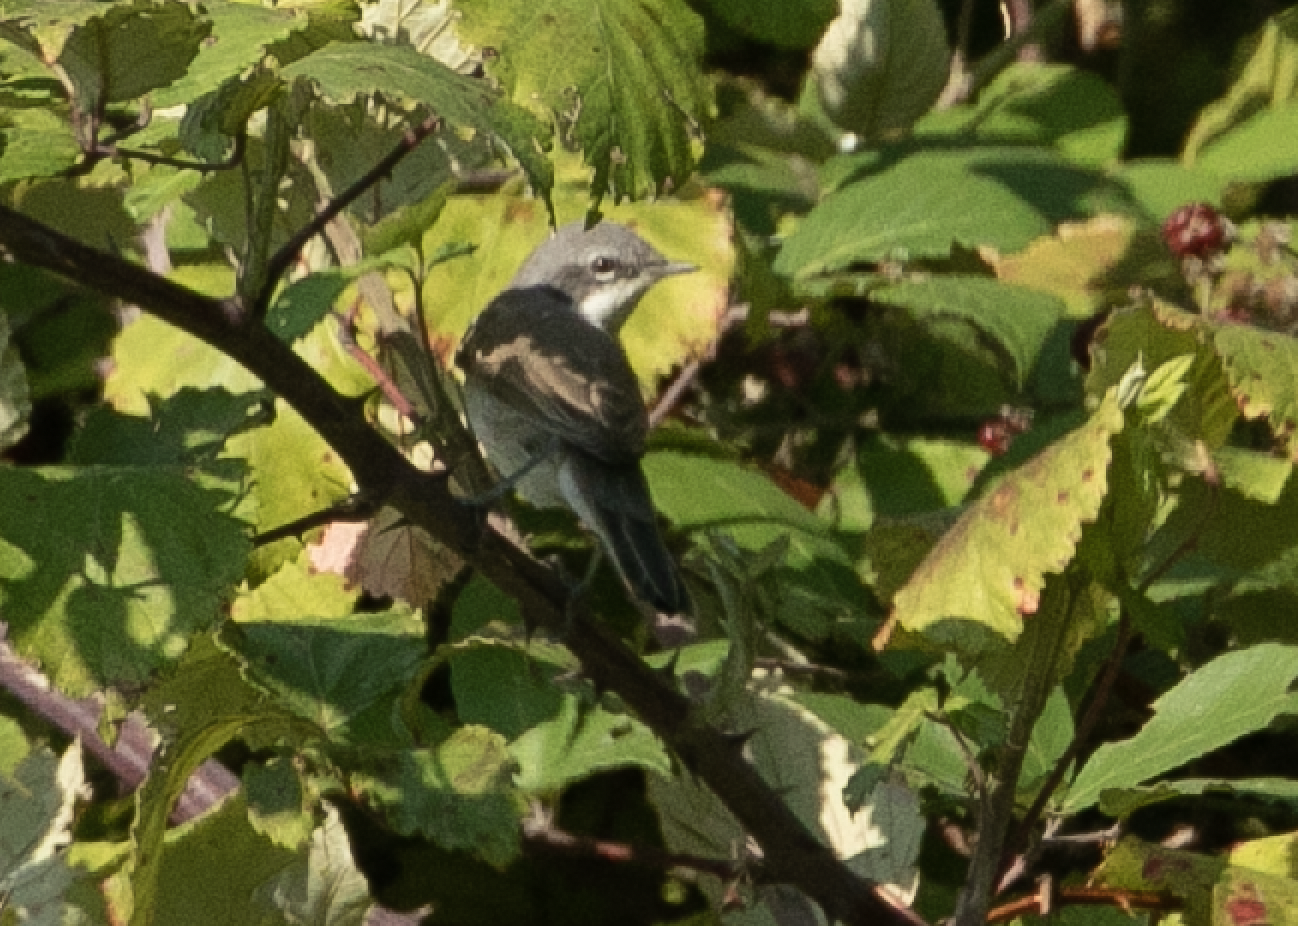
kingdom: Animalia
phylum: Chordata
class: Aves
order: Passeriformes
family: Sylviidae
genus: Sylvia
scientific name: Sylvia curruca
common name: Lesser whitethroat
